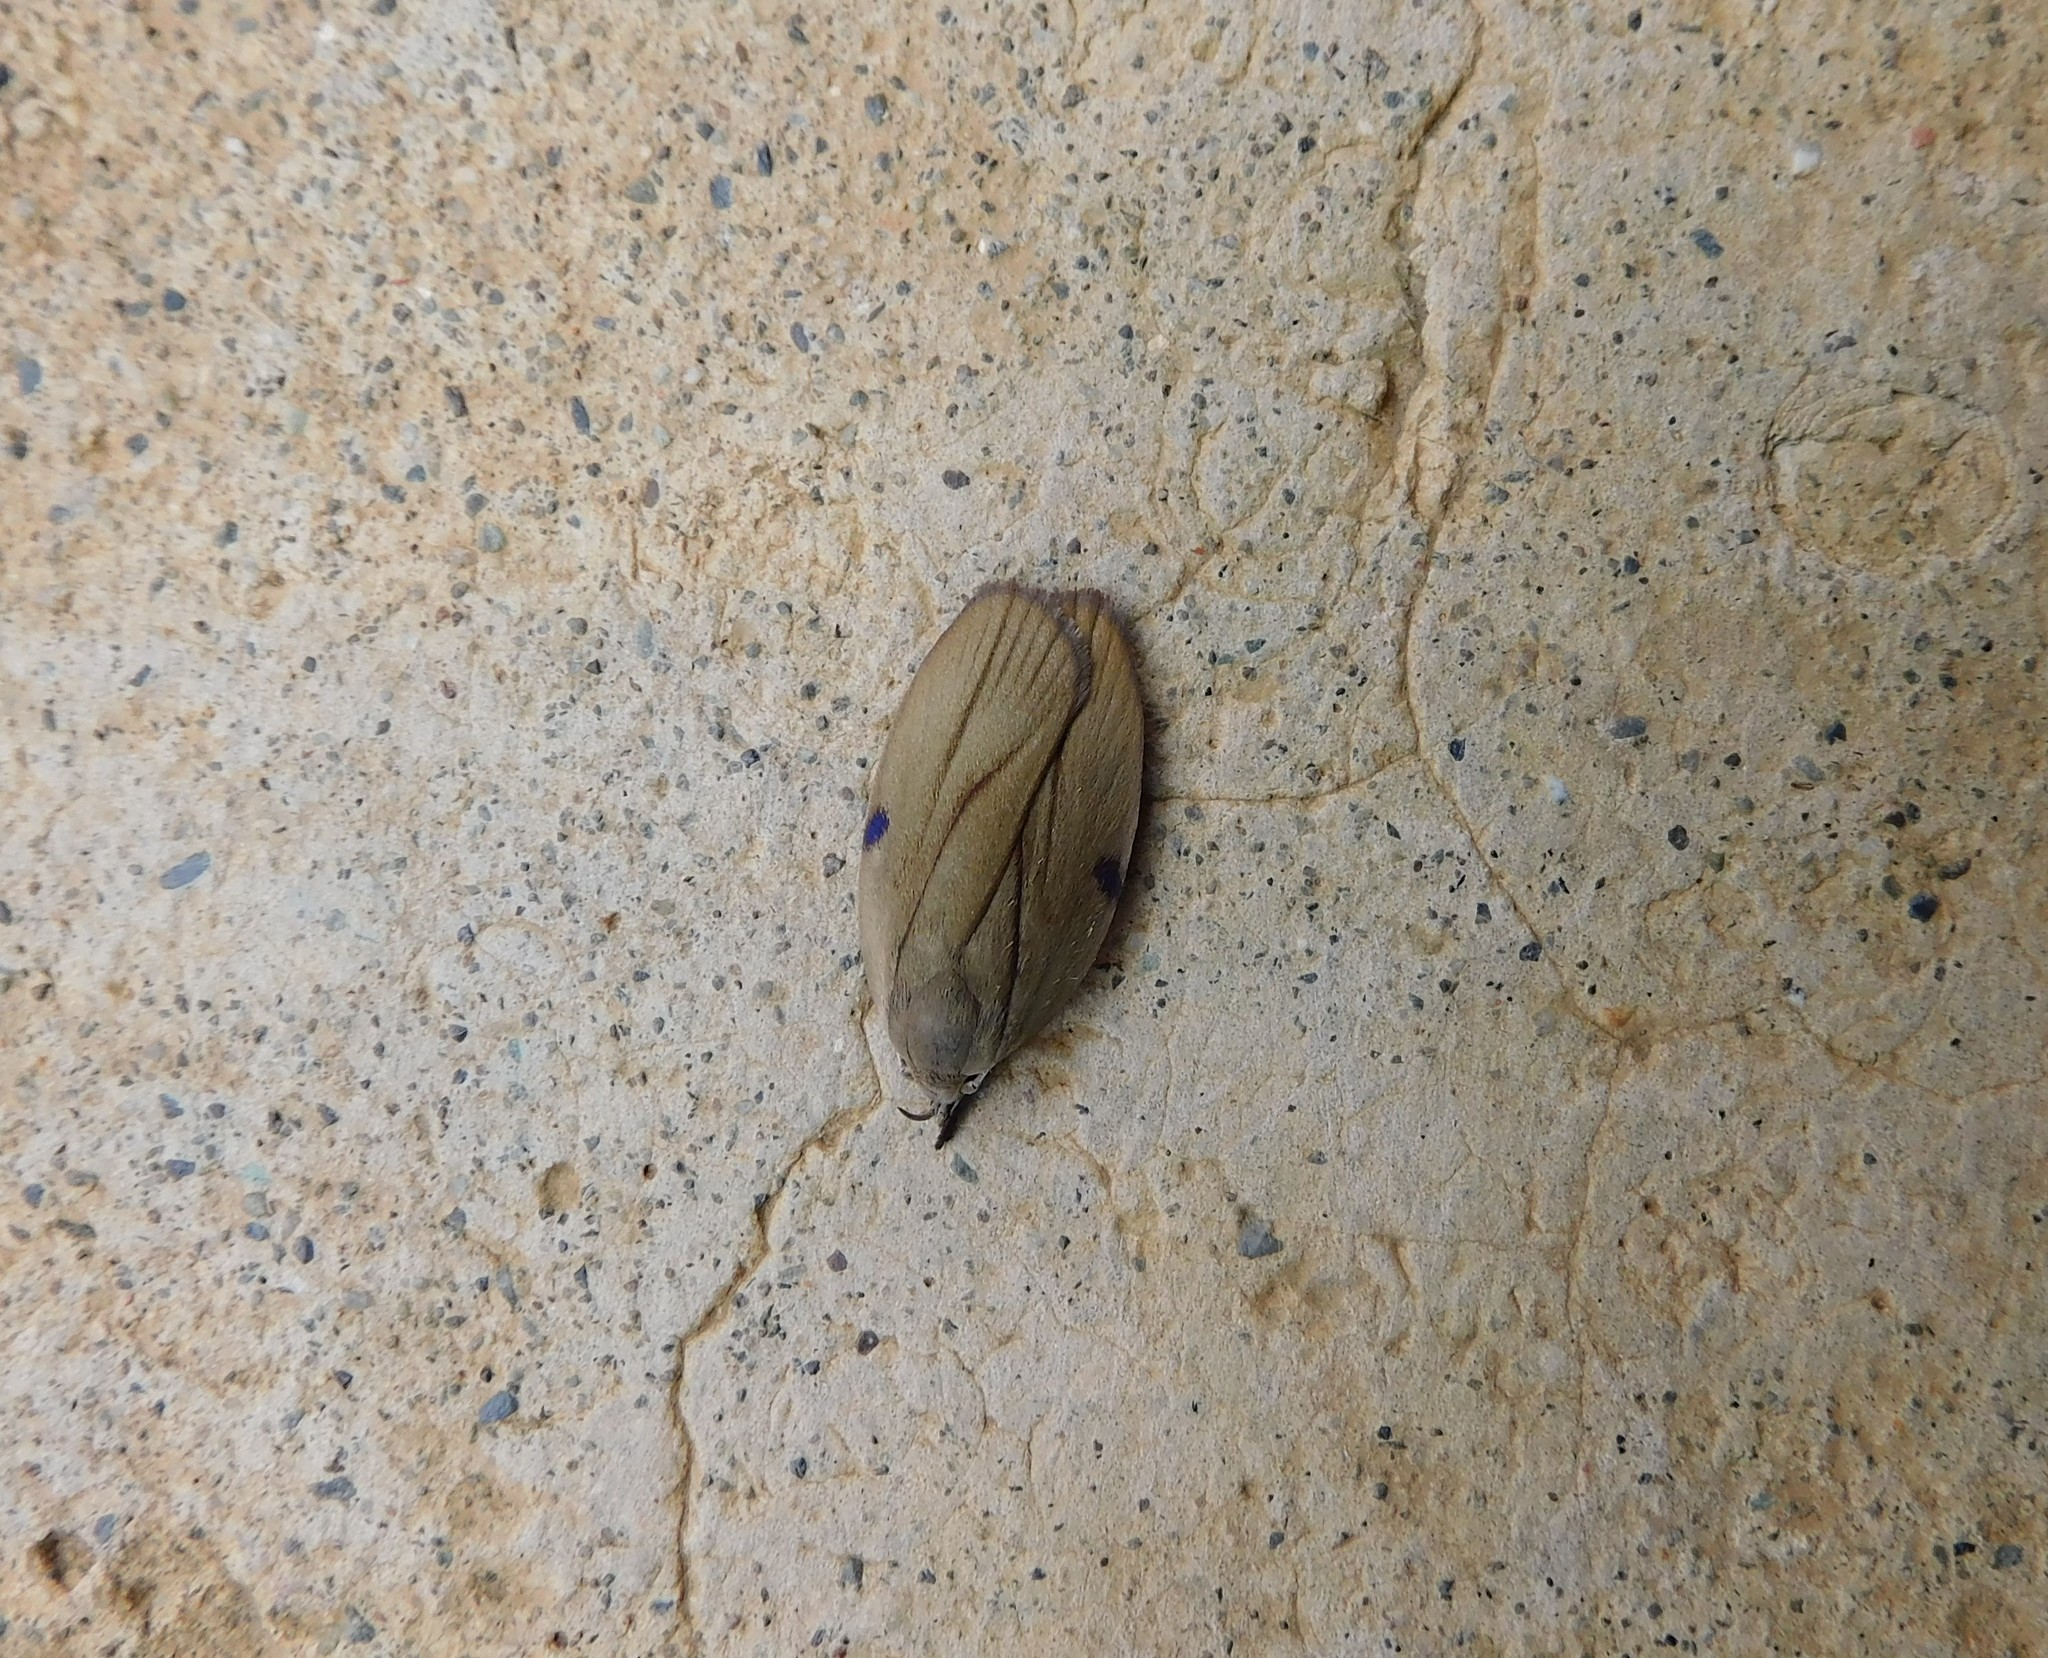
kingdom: Animalia
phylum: Arthropoda
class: Insecta
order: Lepidoptera
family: Depressariidae
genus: Stenoma
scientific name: Stenoma exarata
